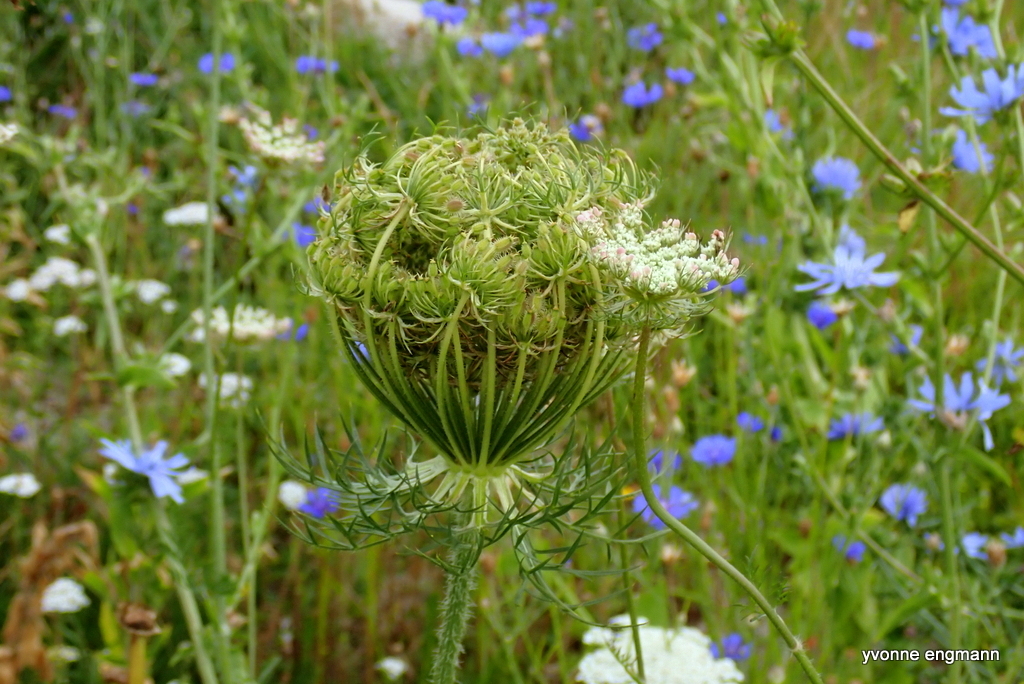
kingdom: Plantae
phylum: Tracheophyta
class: Magnoliopsida
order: Apiales
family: Apiaceae
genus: Daucus
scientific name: Daucus carota
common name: Wild carrot
